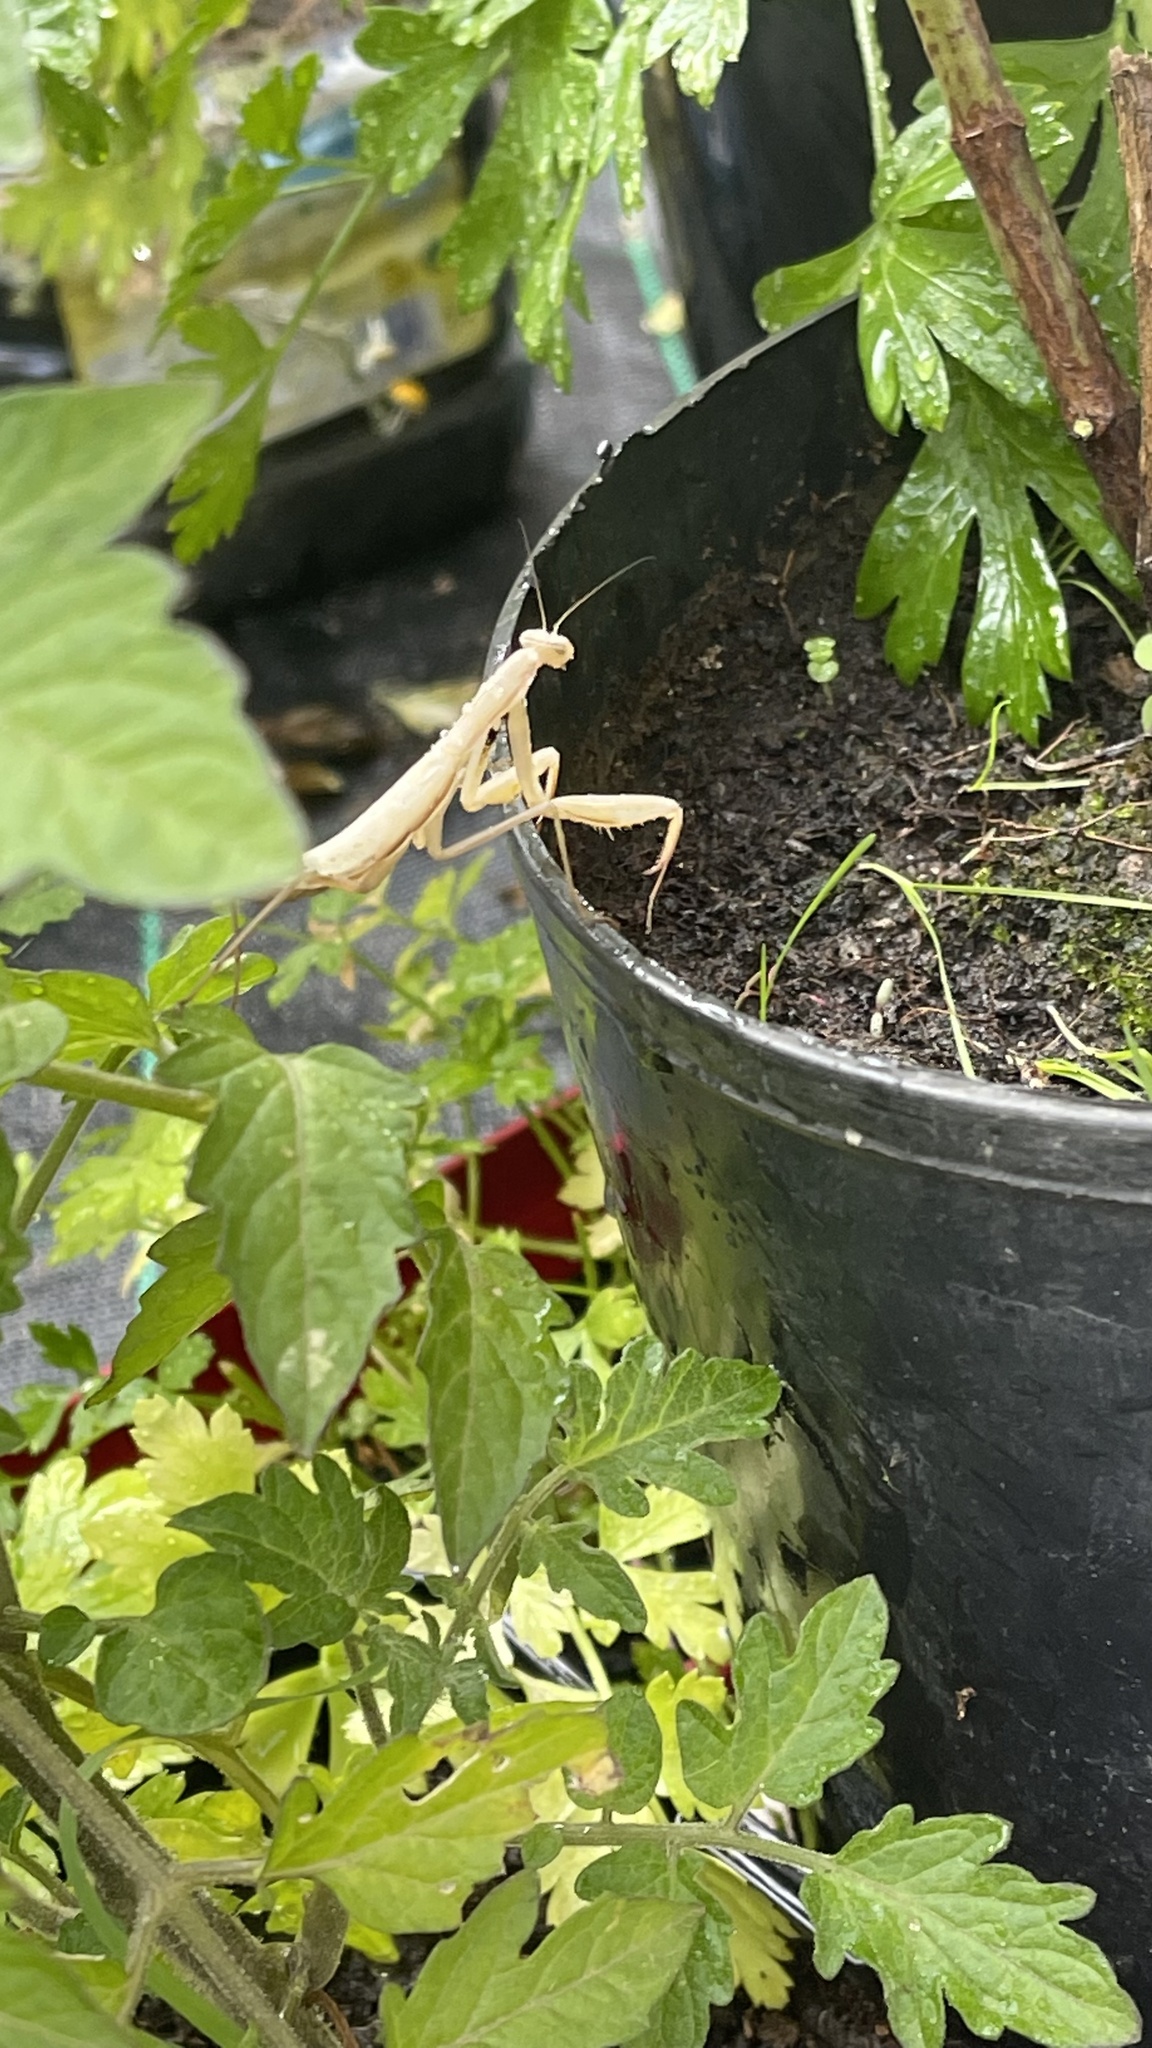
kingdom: Animalia
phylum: Arthropoda
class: Insecta
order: Mantodea
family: Mantidae
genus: Mantis
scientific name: Mantis religiosa
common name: Praying mantis
